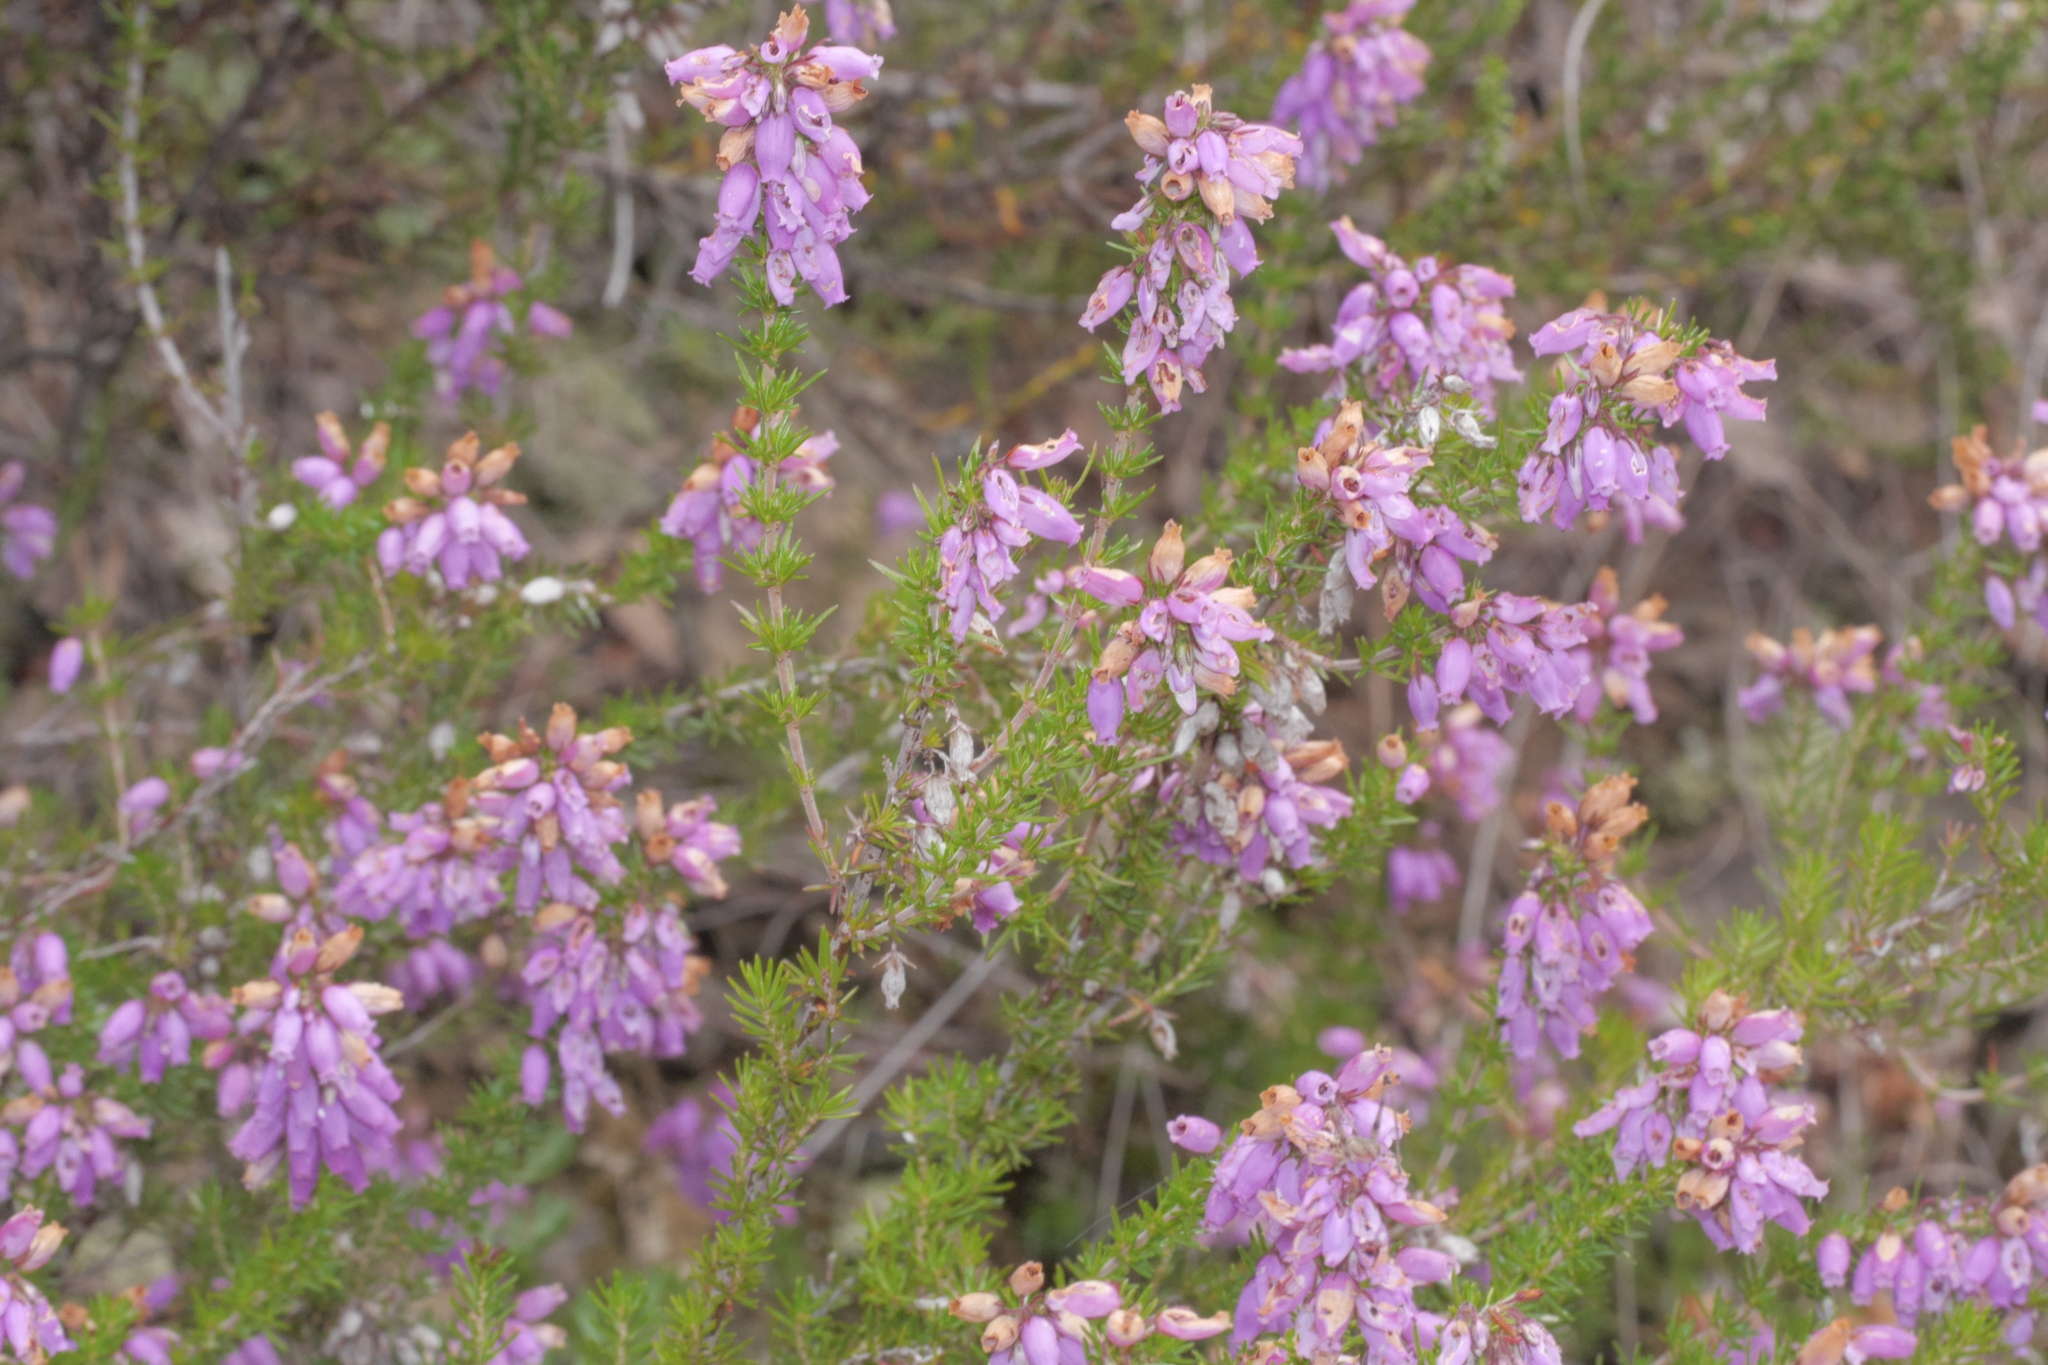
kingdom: Plantae
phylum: Tracheophyta
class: Magnoliopsida
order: Ericales
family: Ericaceae
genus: Erica
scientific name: Erica cinerea
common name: Bell heather
